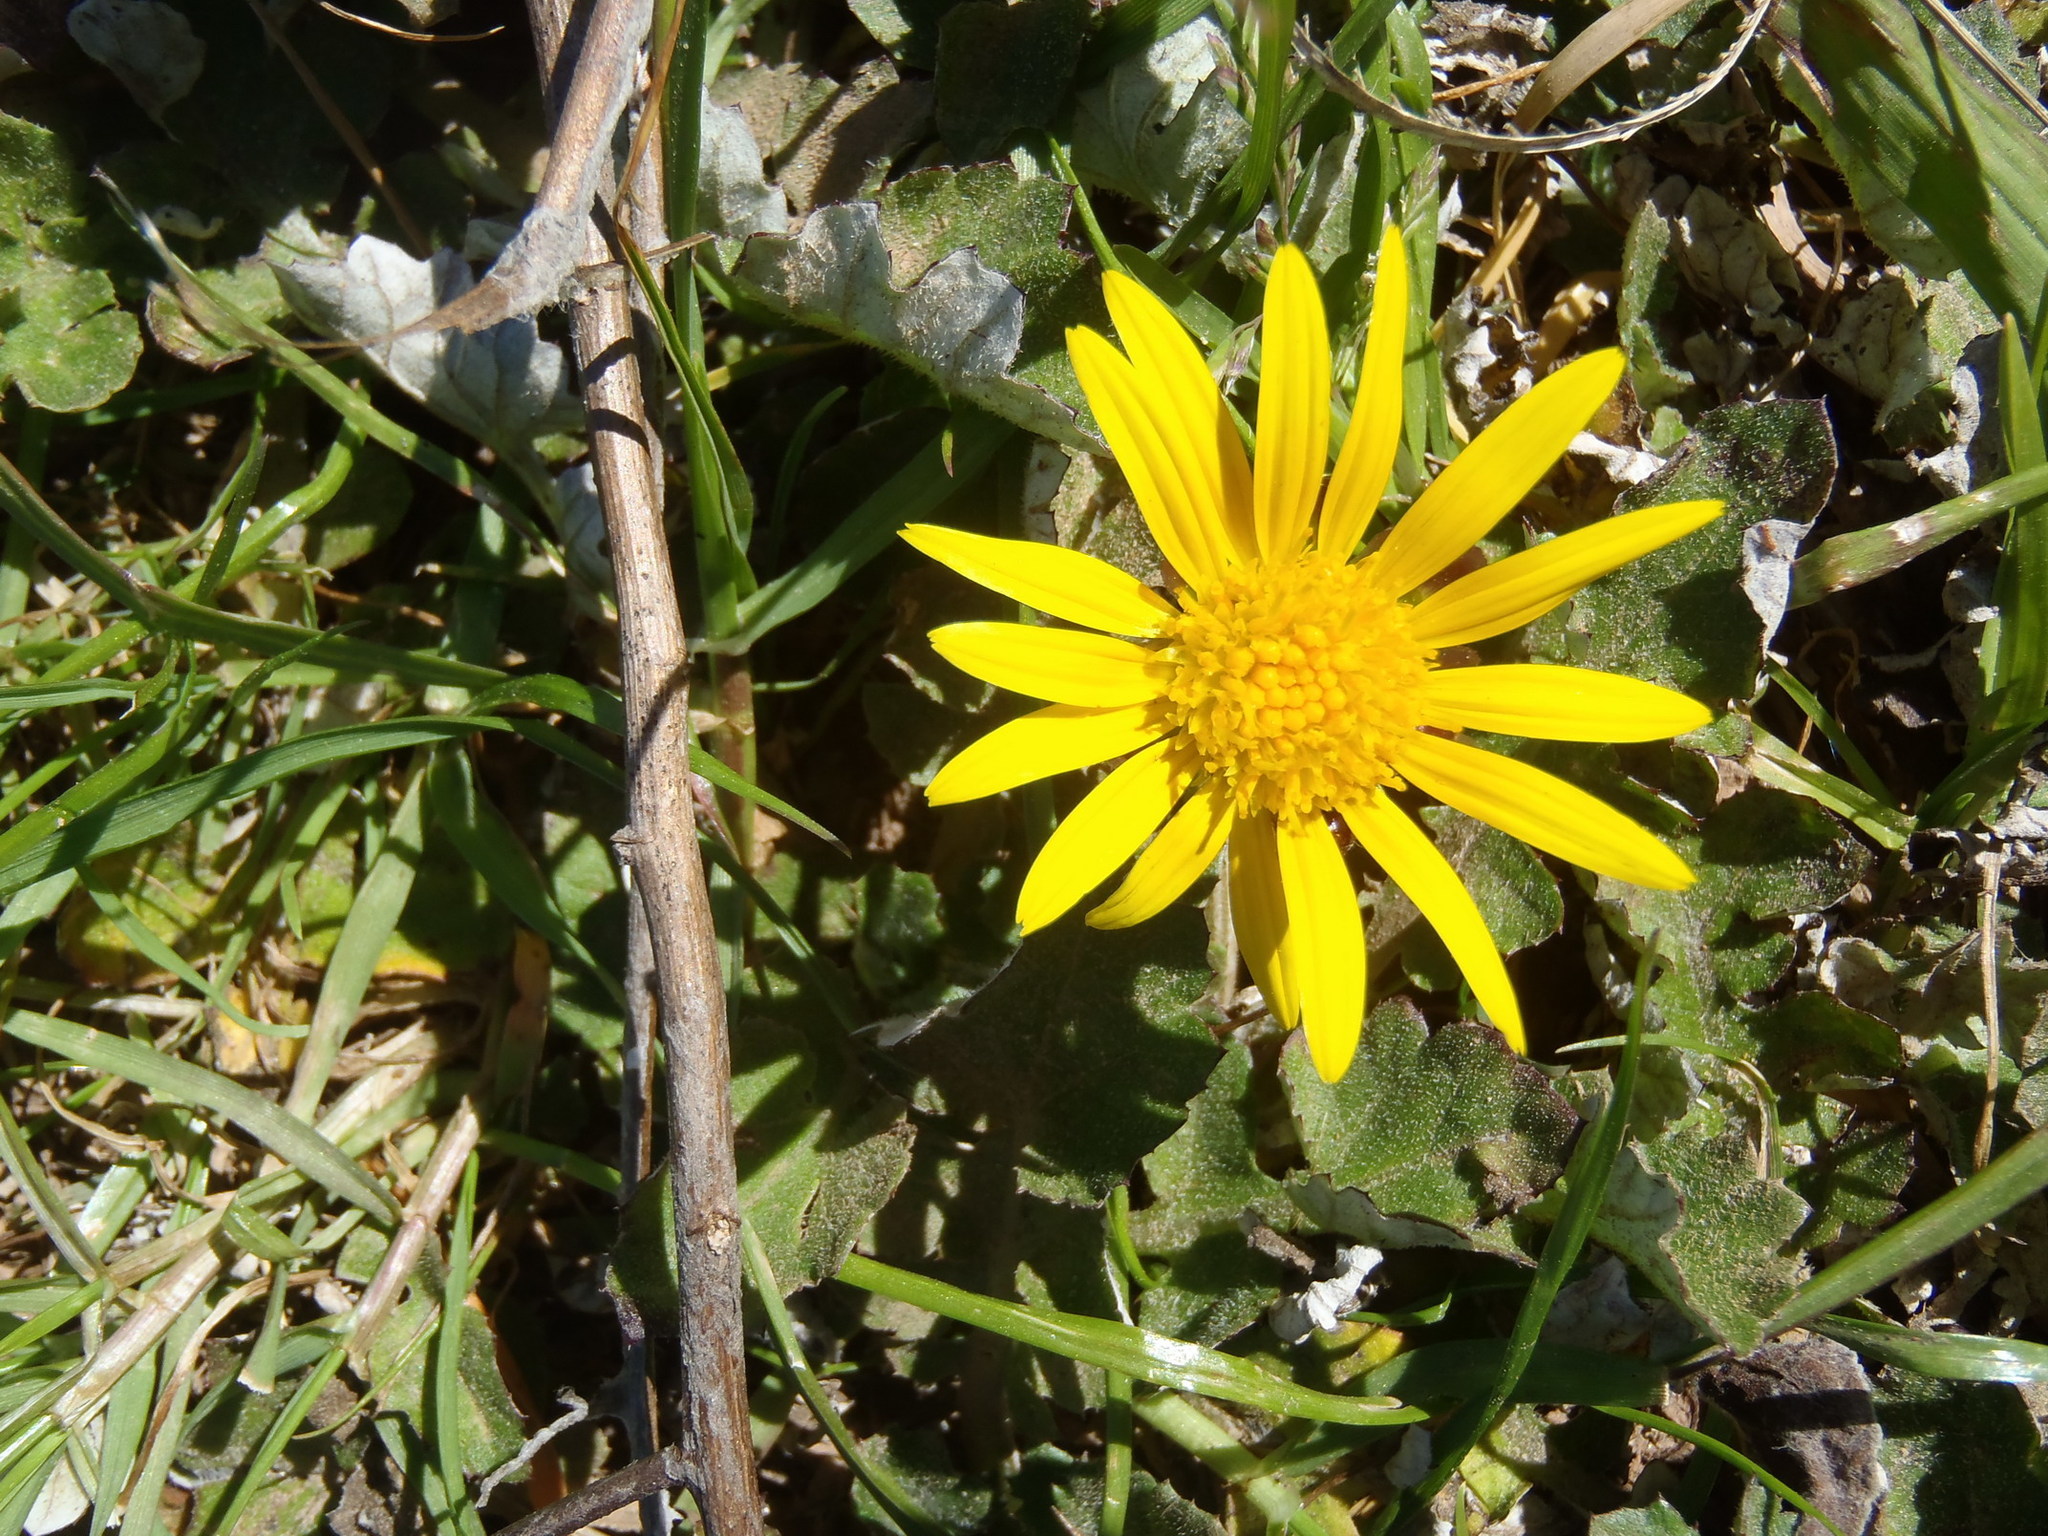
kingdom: Plantae
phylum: Tracheophyta
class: Magnoliopsida
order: Asterales
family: Asteraceae
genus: Arctotheca
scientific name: Arctotheca prostrata
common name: Capeweed
